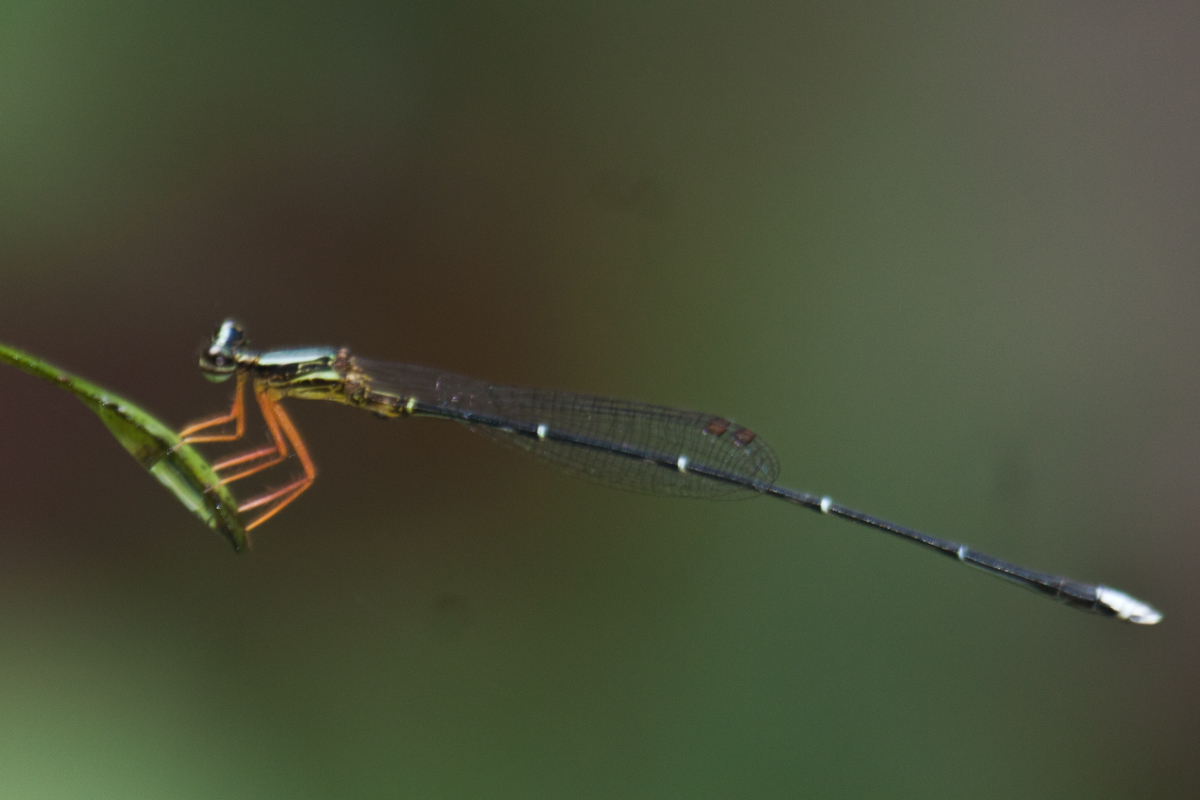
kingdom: Animalia
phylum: Arthropoda
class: Insecta
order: Odonata
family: Platycnemididae
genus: Copera
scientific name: Copera vittata
